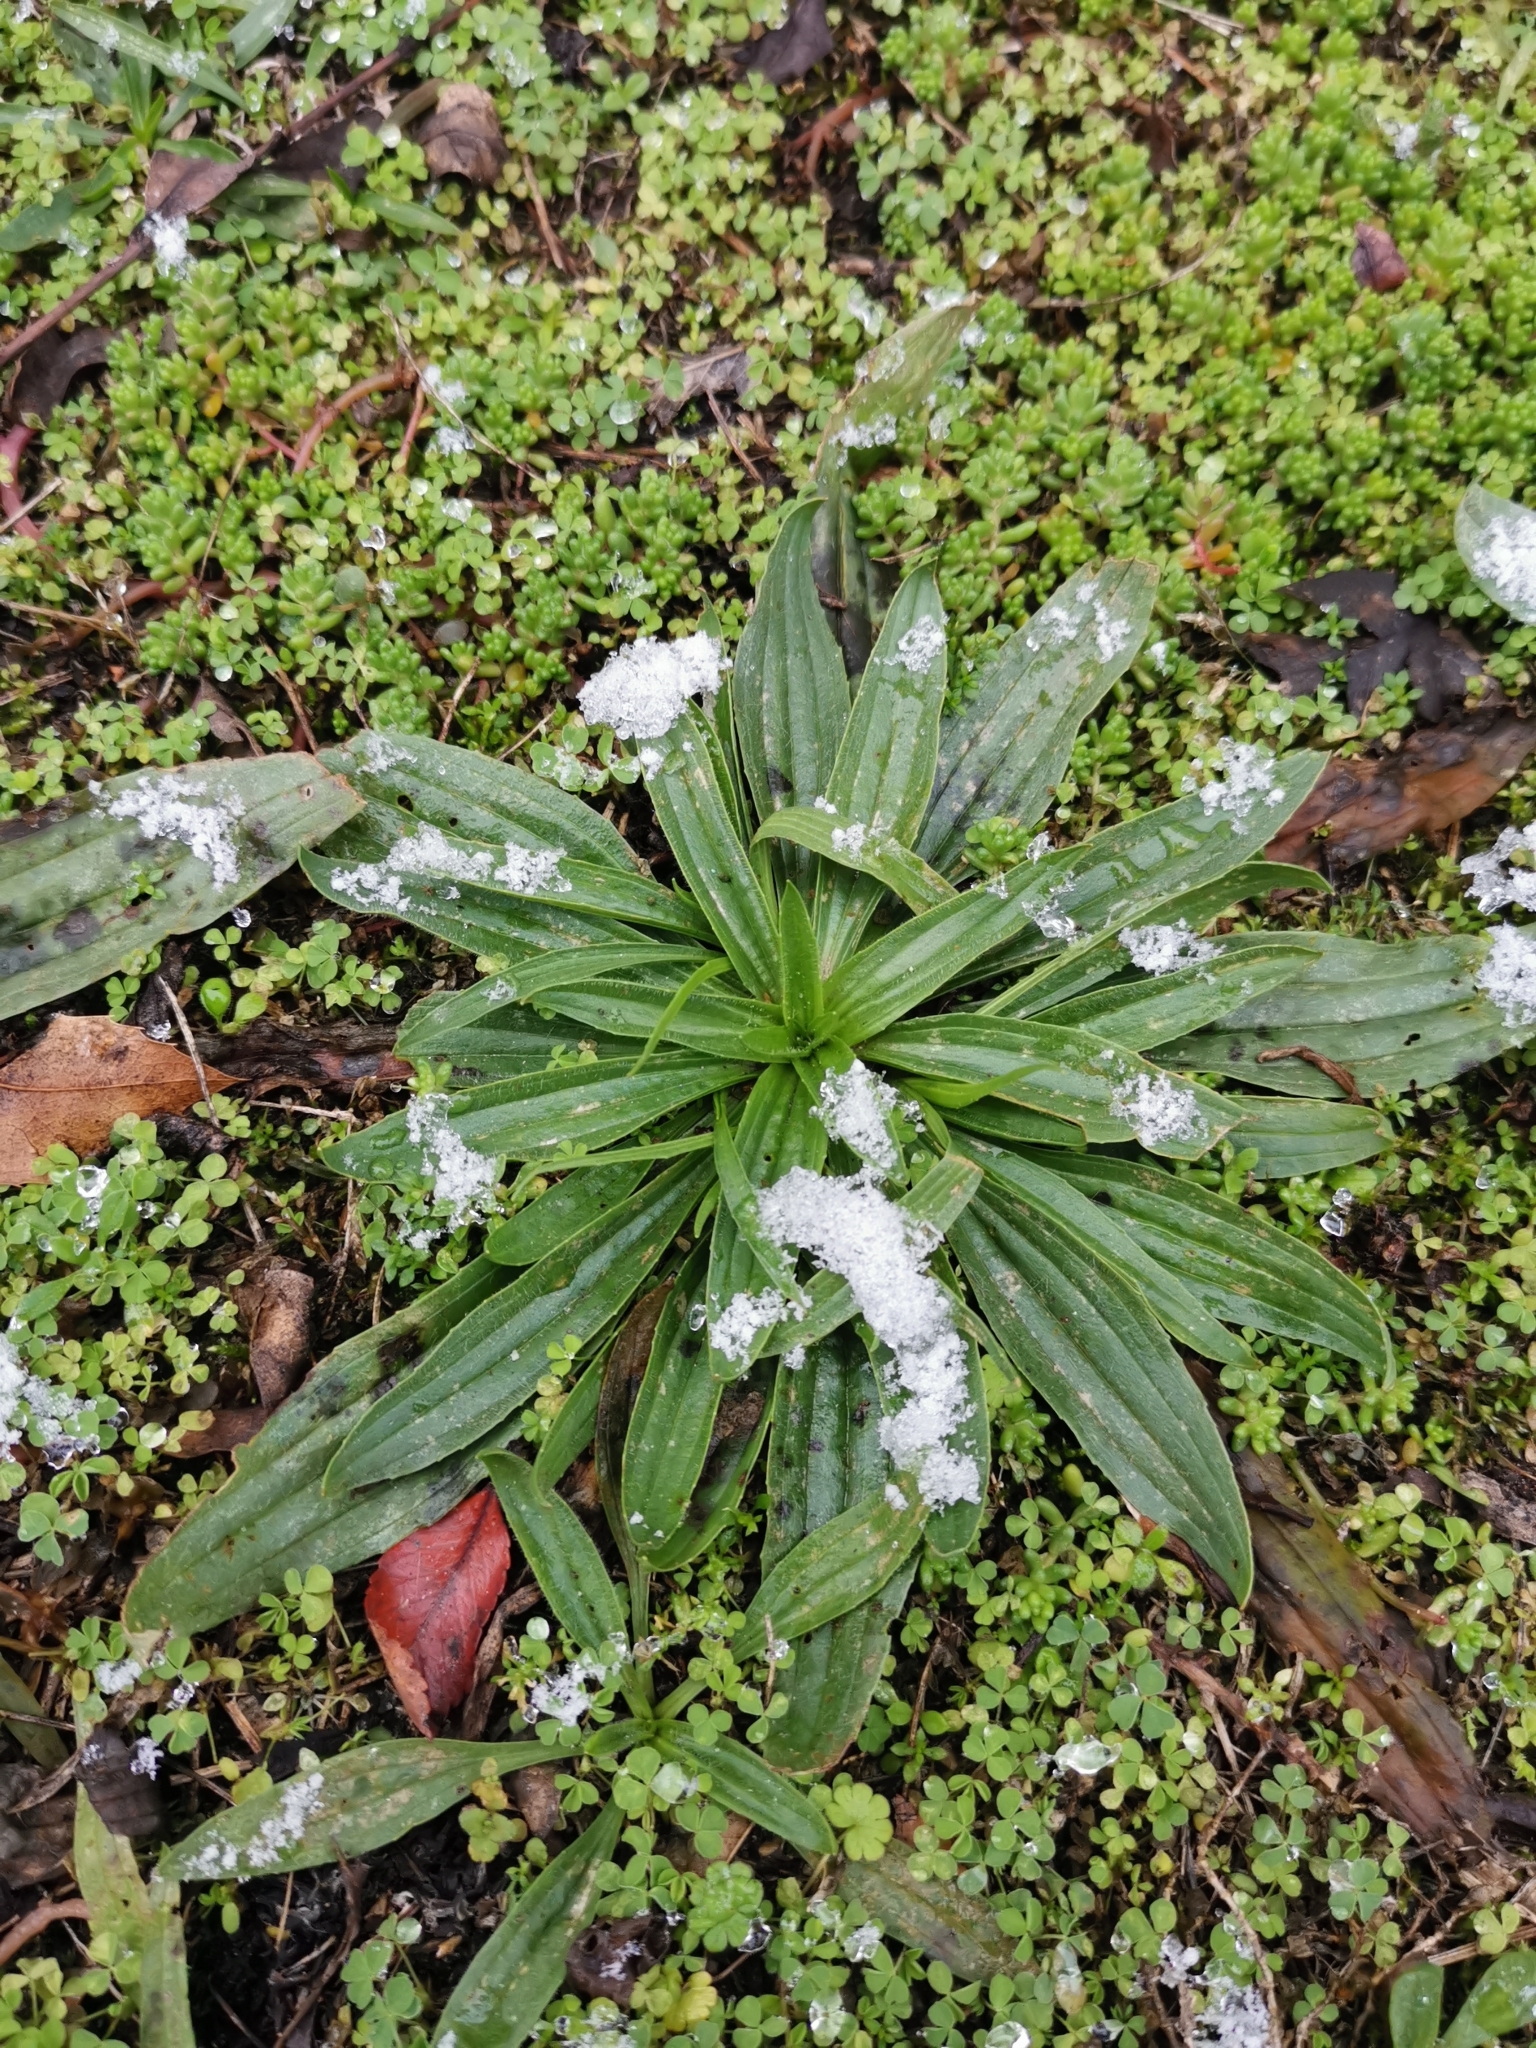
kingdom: Plantae
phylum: Tracheophyta
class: Magnoliopsida
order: Lamiales
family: Plantaginaceae
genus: Plantago
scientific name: Plantago lanceolata
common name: Ribwort plantain
